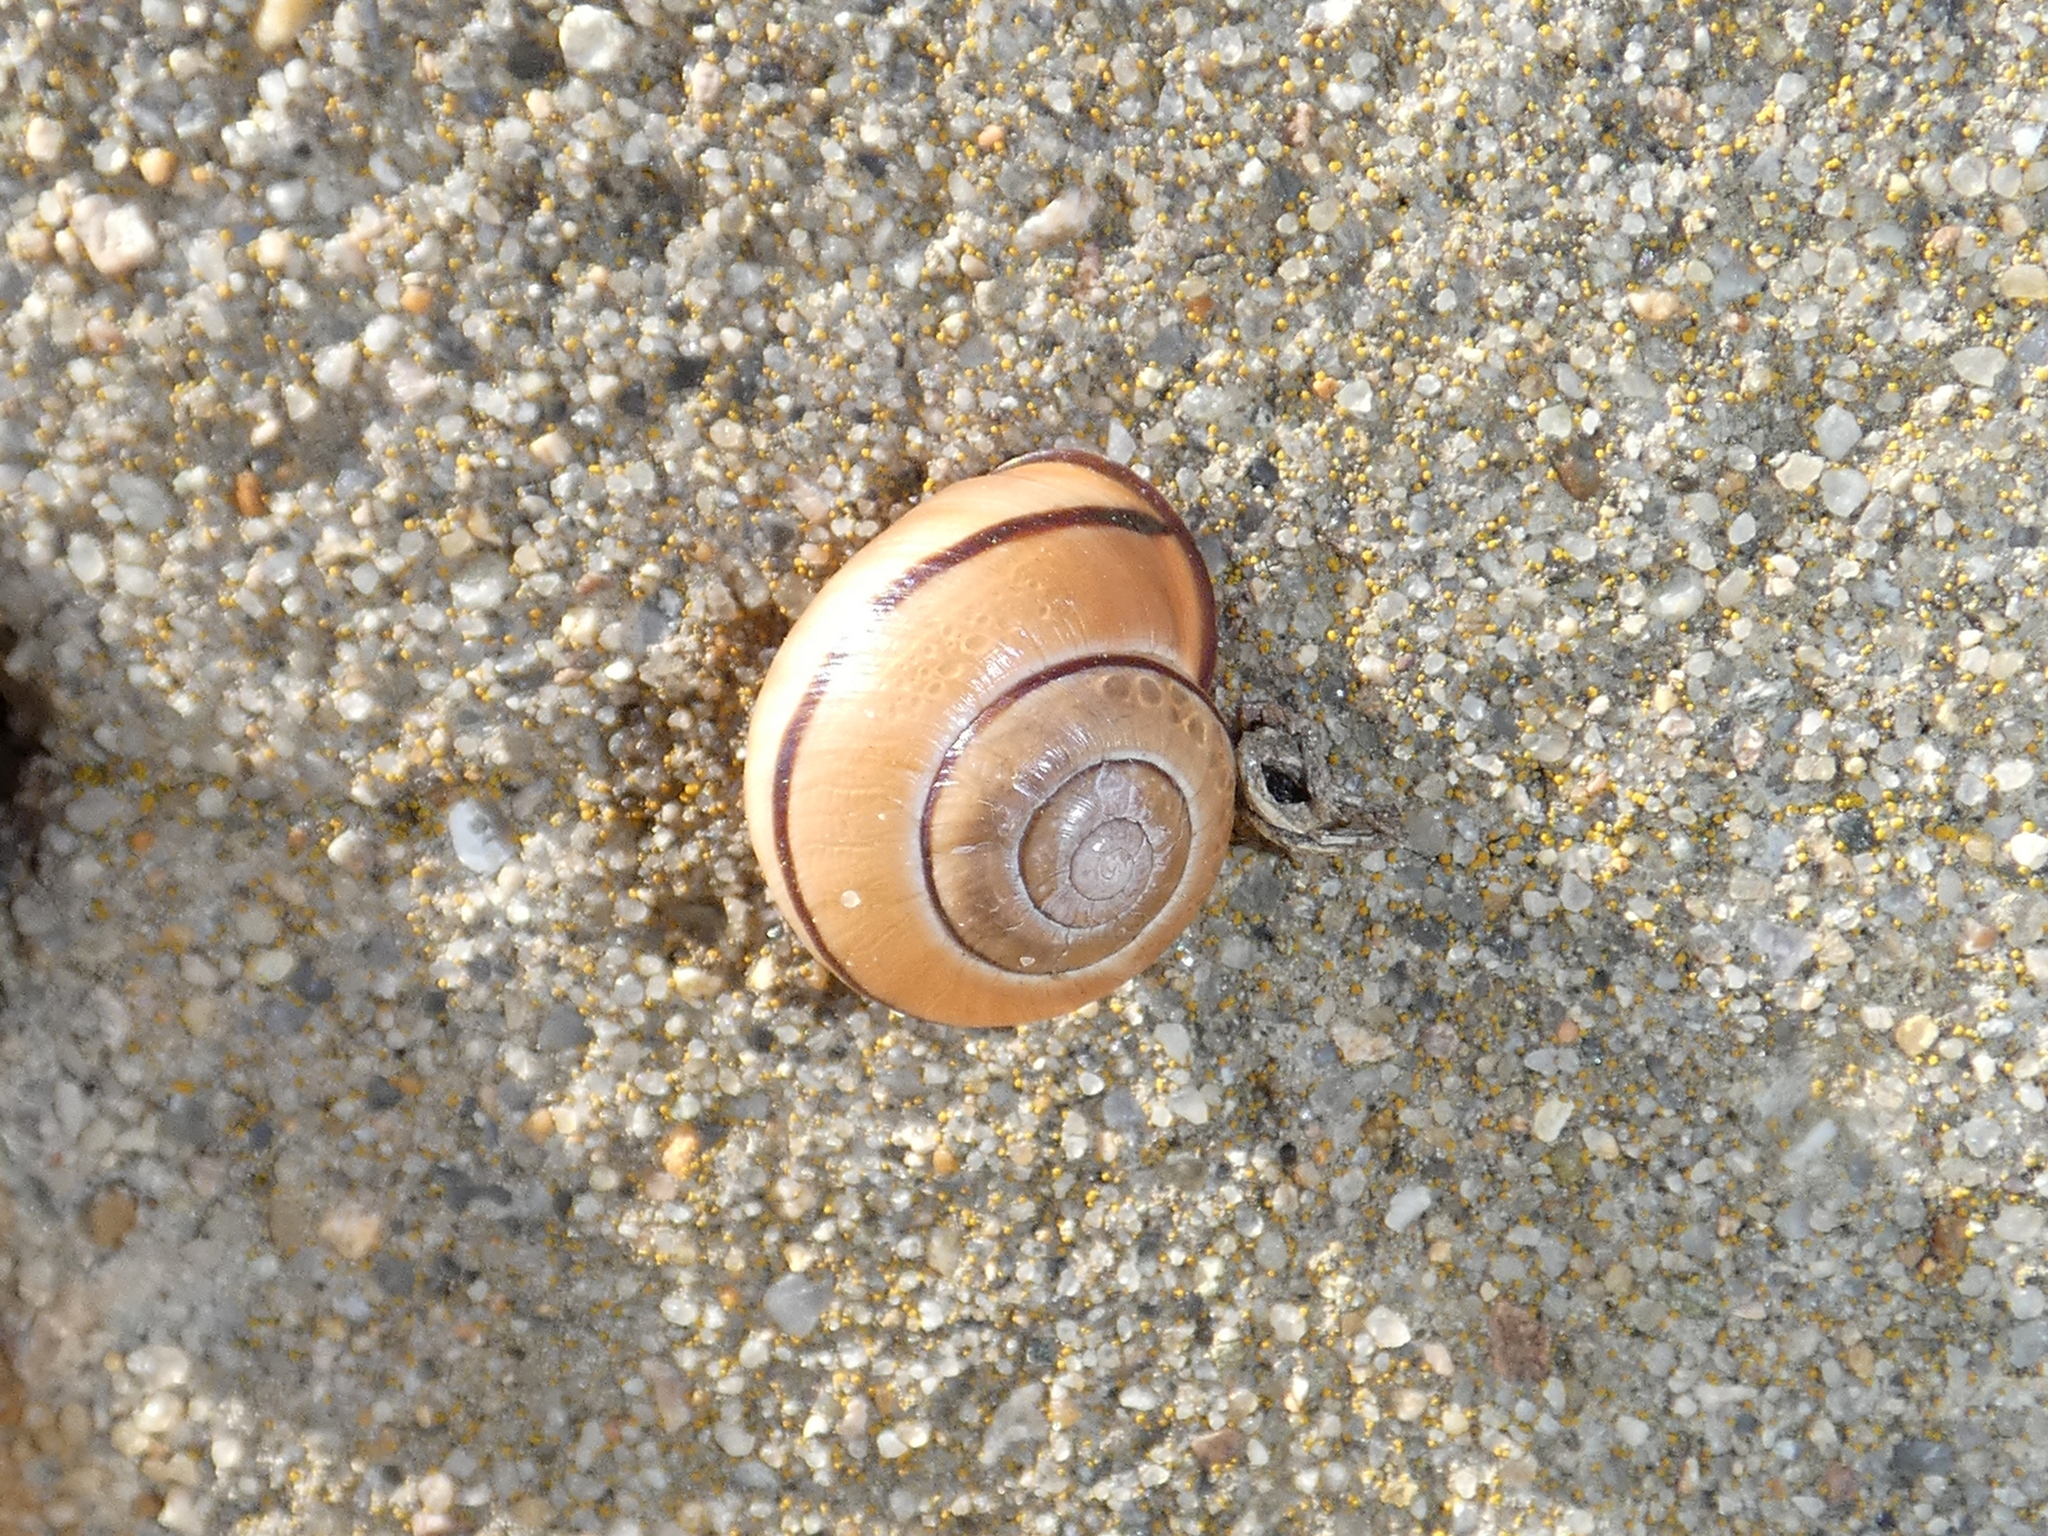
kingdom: Animalia
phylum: Mollusca
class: Gastropoda
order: Stylommatophora
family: Helicidae
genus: Cepaea
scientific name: Cepaea nemoralis
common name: Grovesnail
